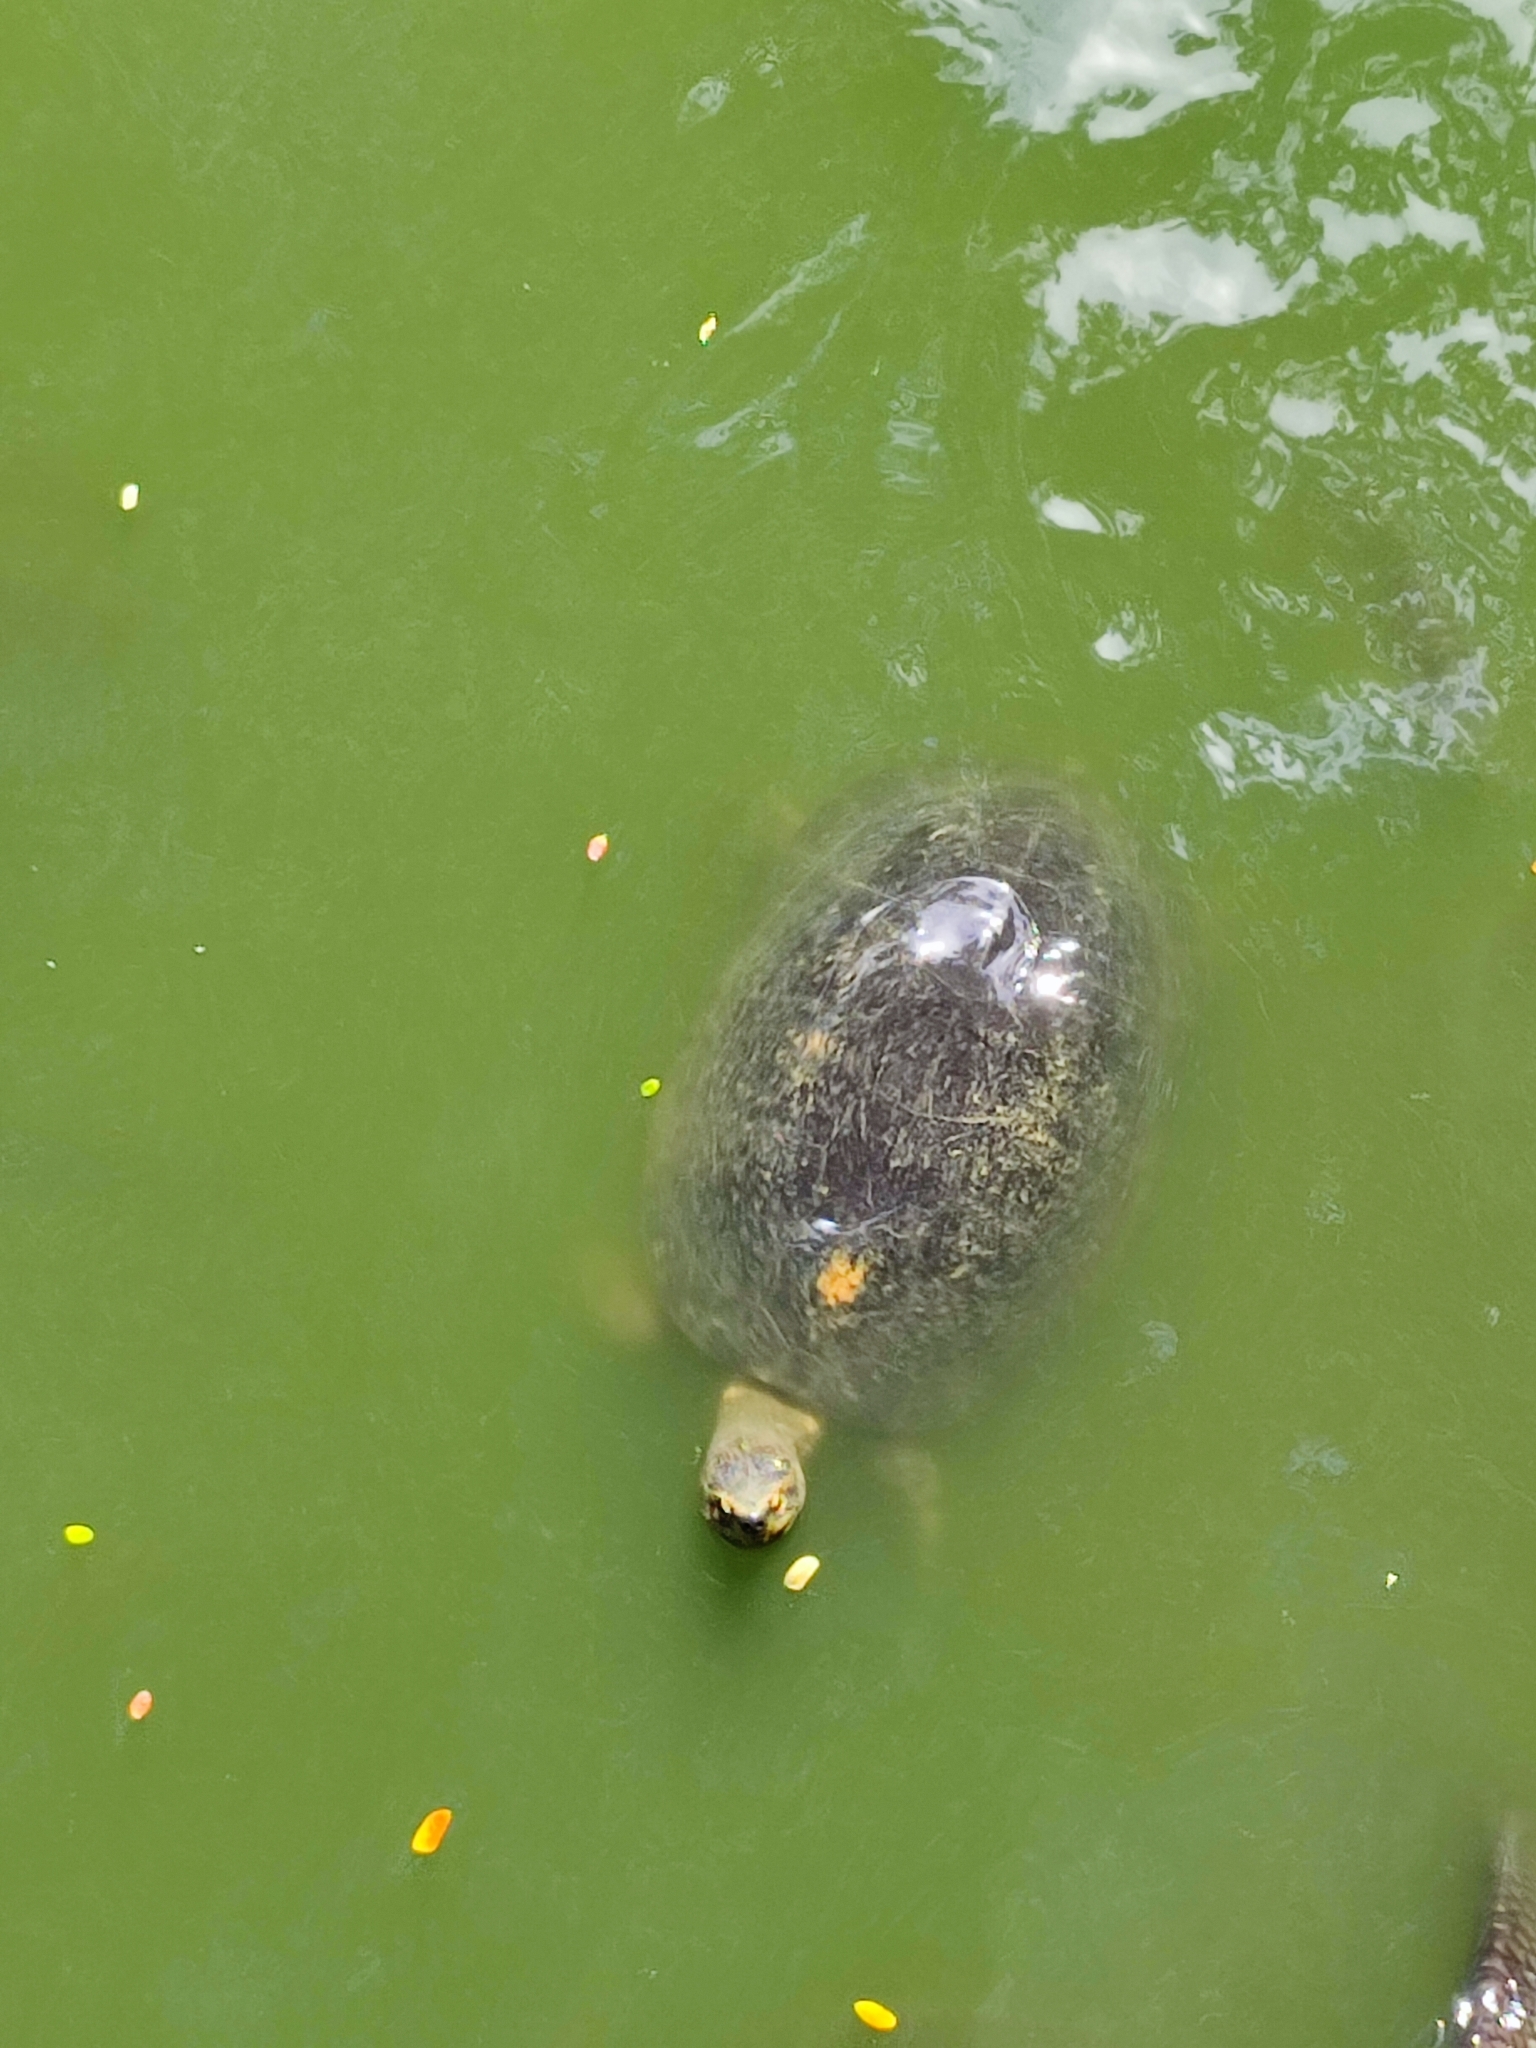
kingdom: Animalia
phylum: Chordata
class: Testudines
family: Geoemydidae
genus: Heosemys
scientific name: Heosemys annandalii
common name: Yellow-headed temple turtle
